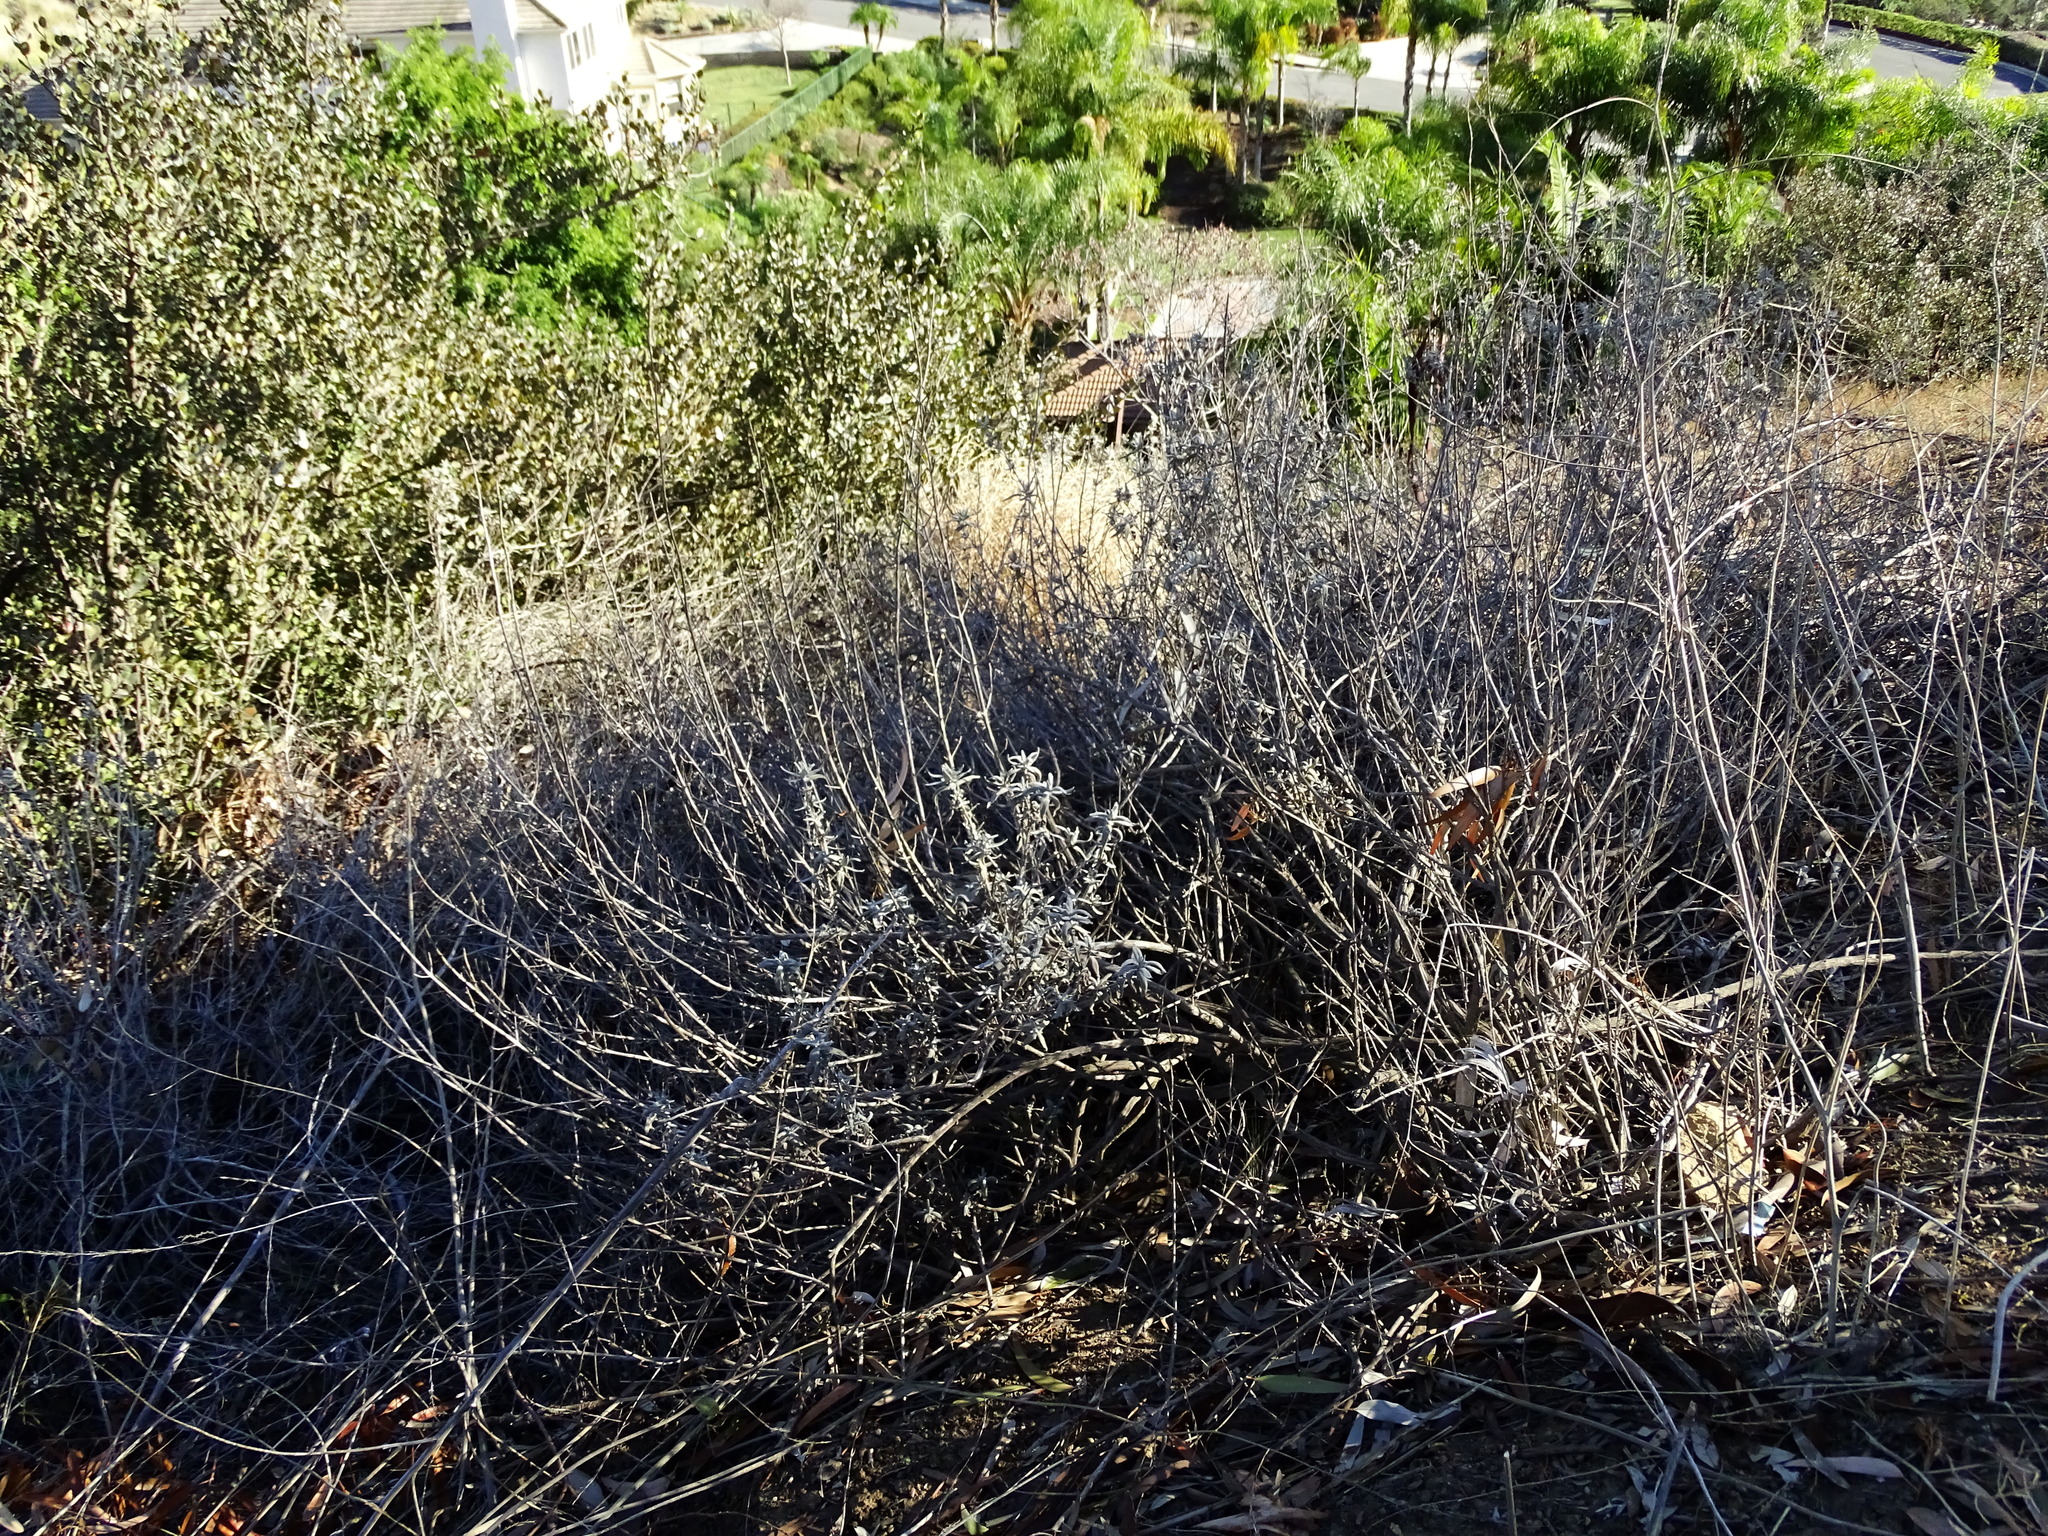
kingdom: Plantae
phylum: Tracheophyta
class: Magnoliopsida
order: Lamiales
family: Lamiaceae
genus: Salvia
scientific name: Salvia leucophylla
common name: Purple sage
